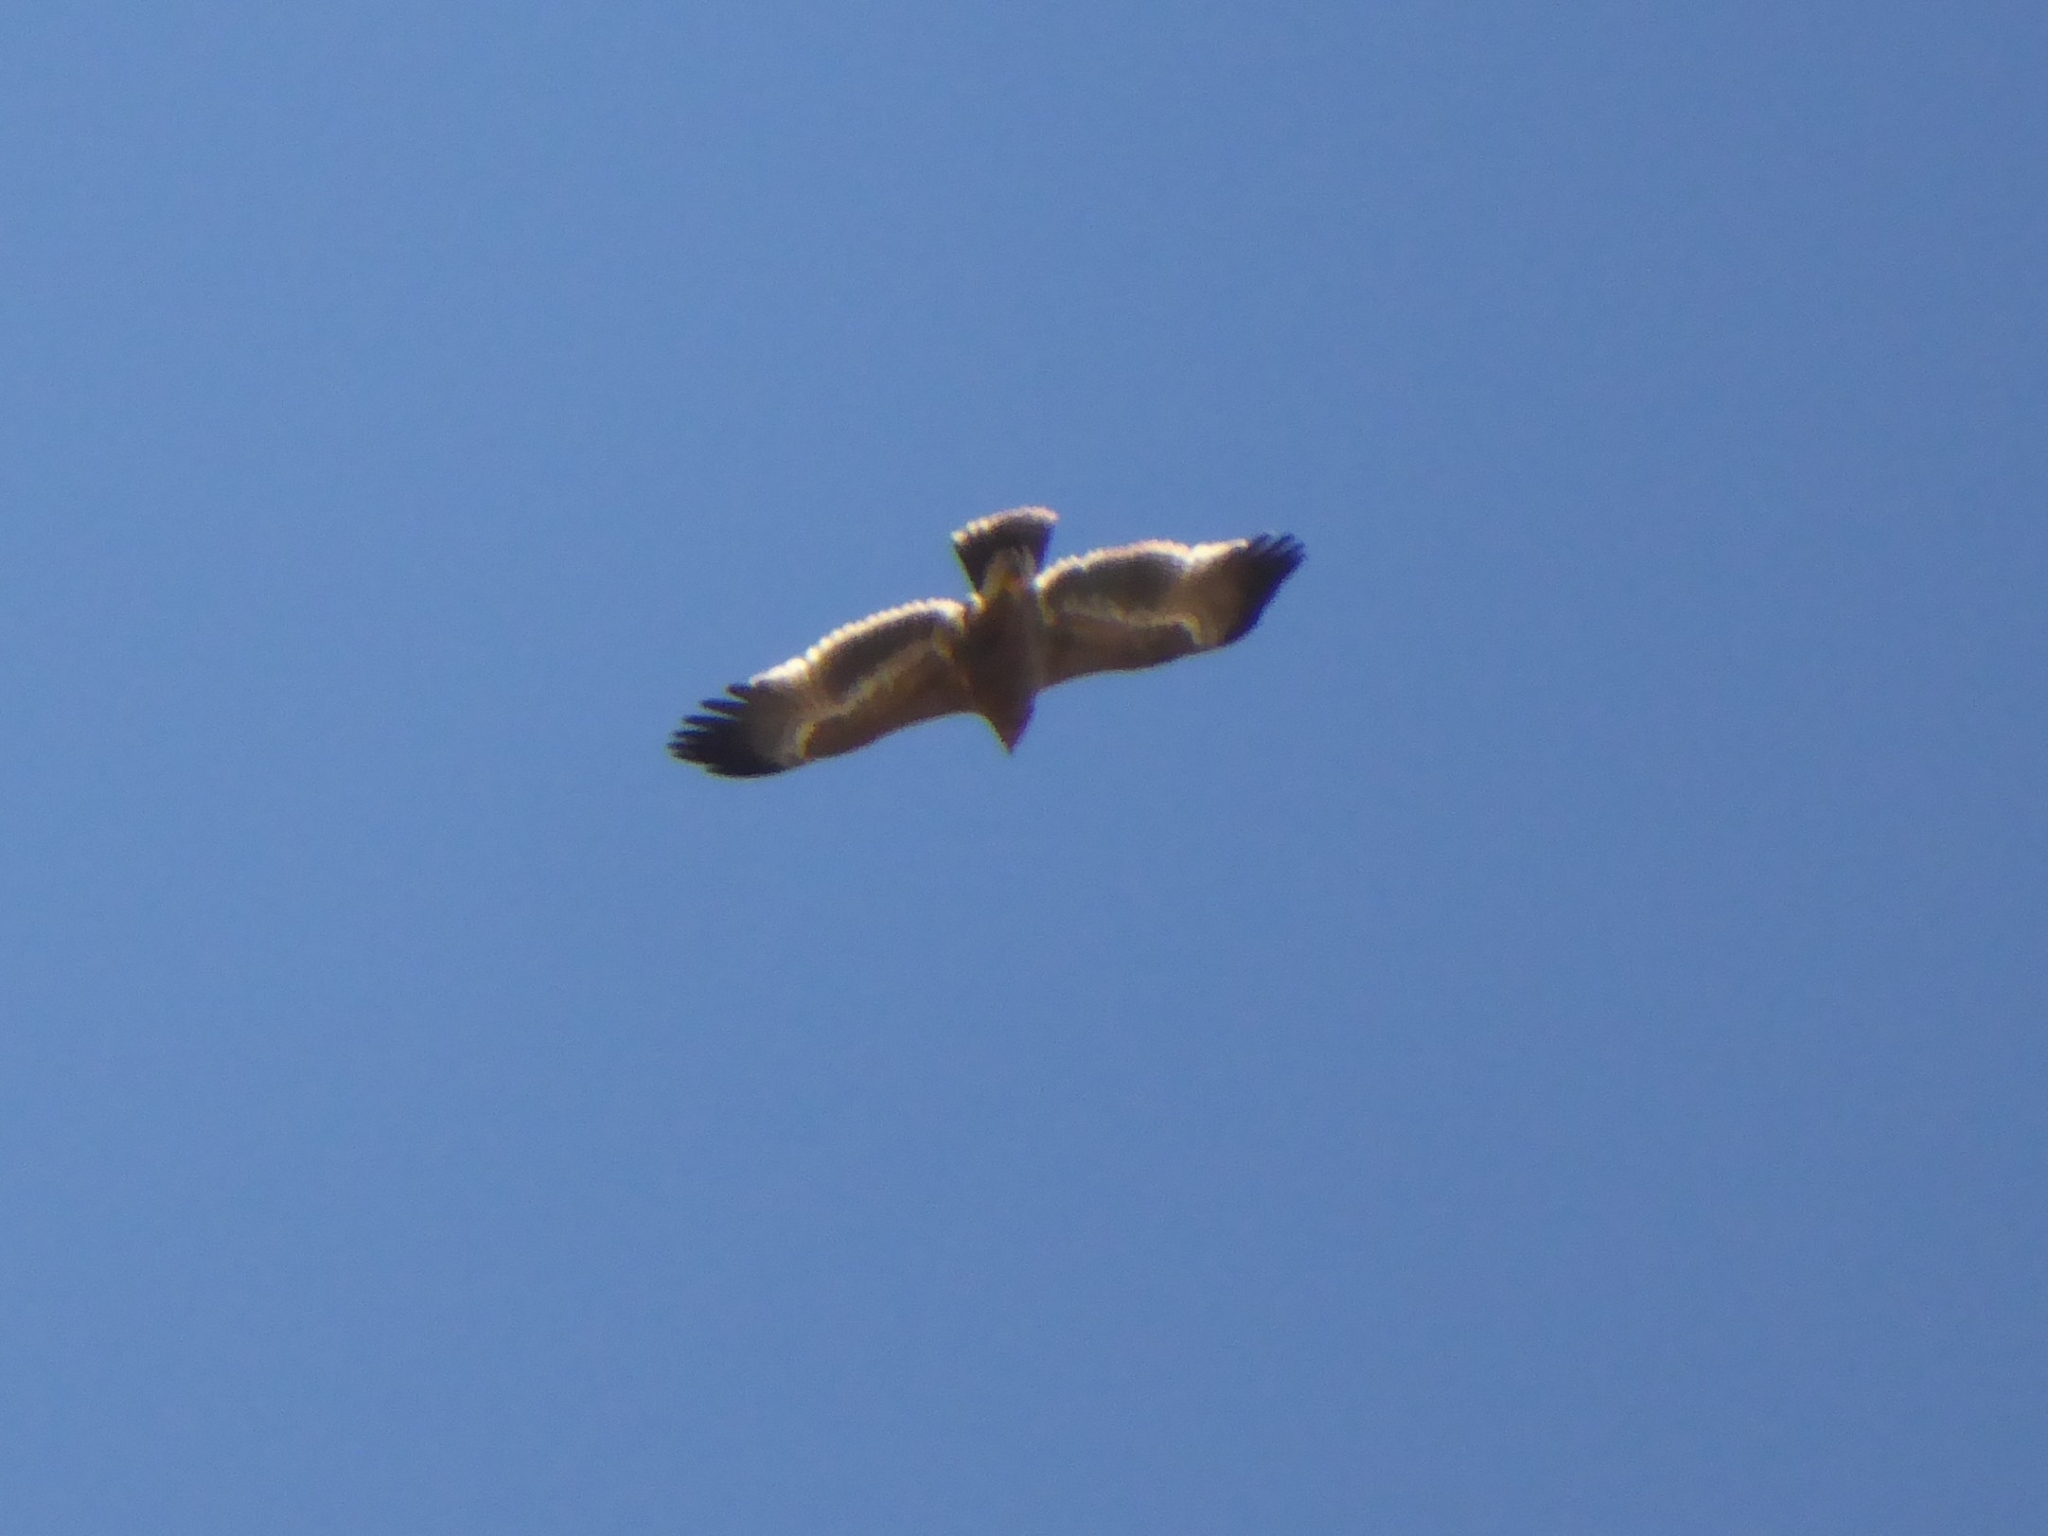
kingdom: Animalia
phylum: Chordata
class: Aves
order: Accipitriformes
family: Accipitridae
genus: Aquila
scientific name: Aquila nipalensis
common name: Steppe eagle
